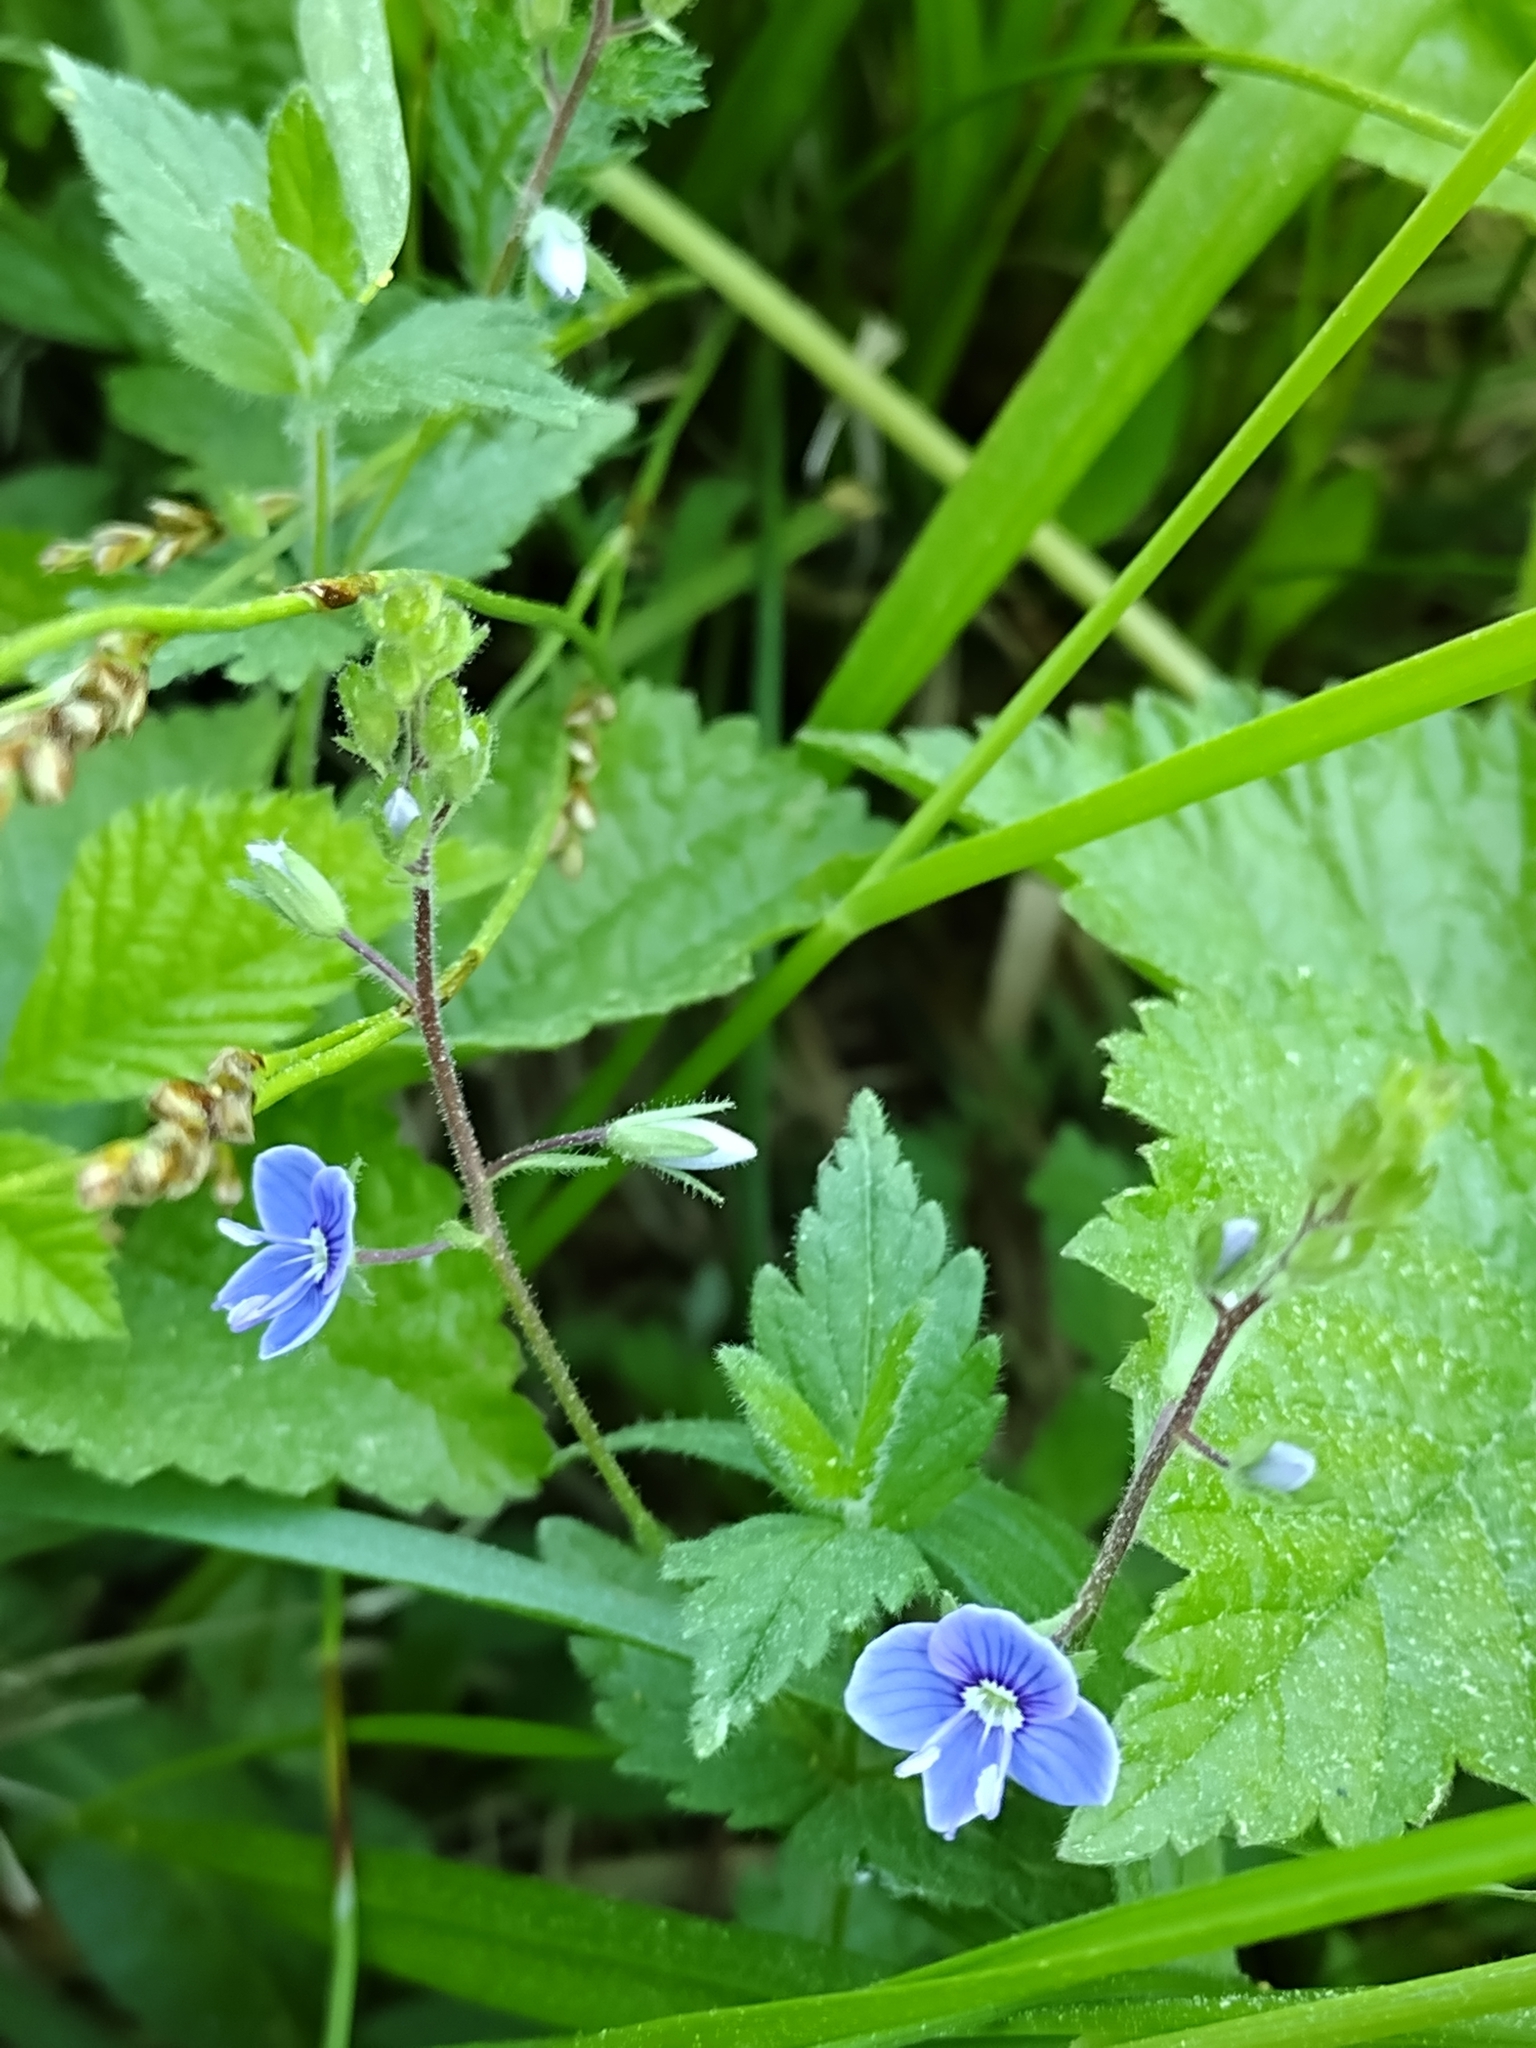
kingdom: Plantae
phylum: Tracheophyta
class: Magnoliopsida
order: Lamiales
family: Plantaginaceae
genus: Veronica
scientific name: Veronica chamaedrys
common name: Germander speedwell
